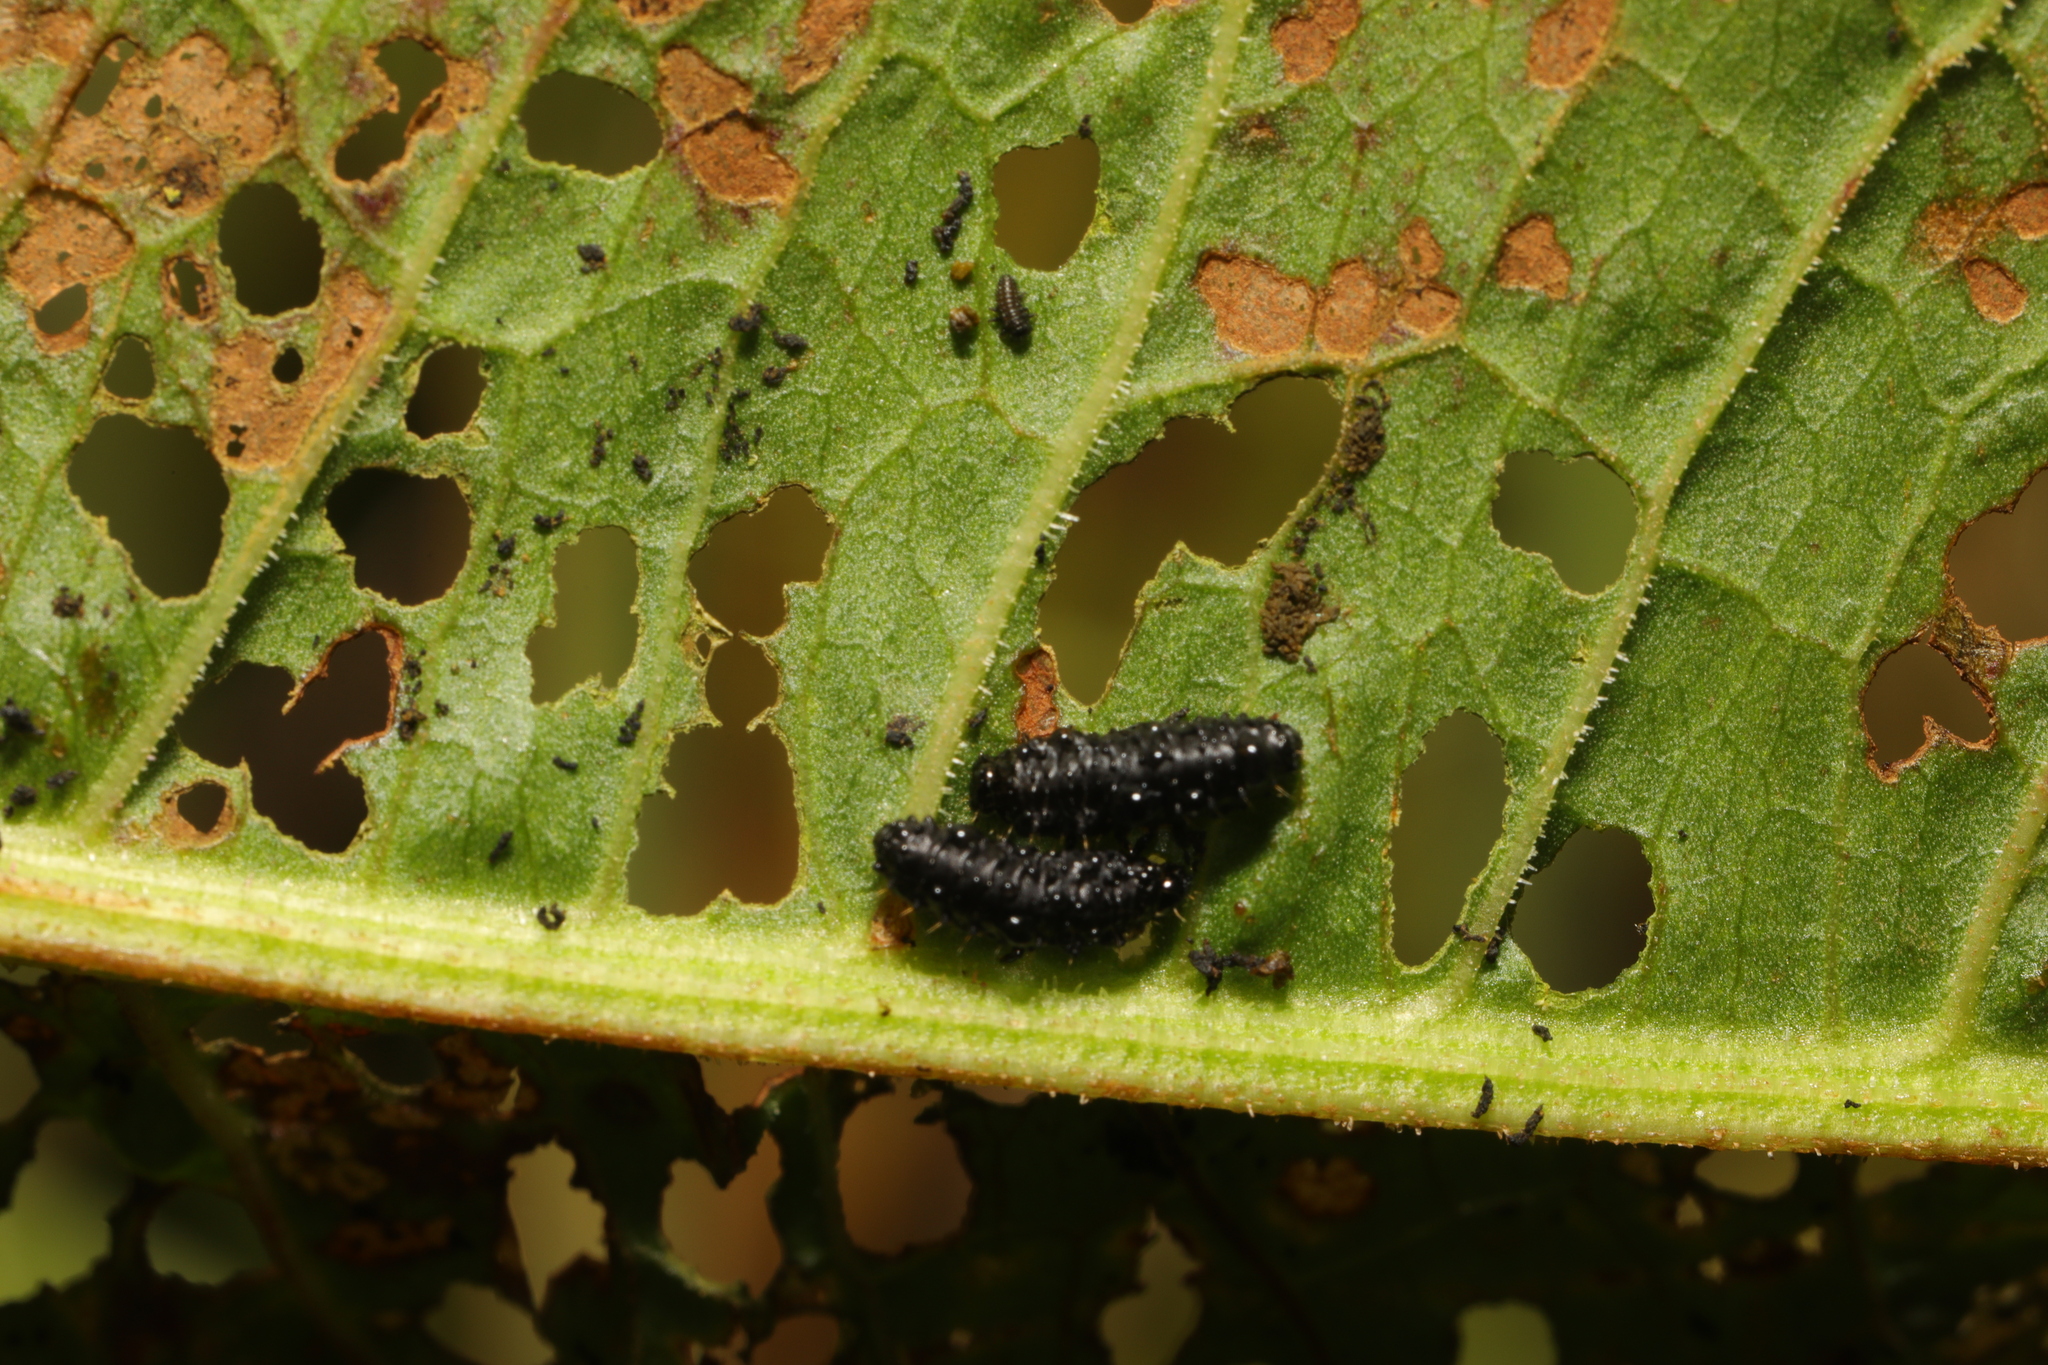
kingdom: Animalia
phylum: Arthropoda
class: Insecta
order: Coleoptera
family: Chrysomelidae
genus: Gastrophysa
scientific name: Gastrophysa viridula
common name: Green dock beetle
